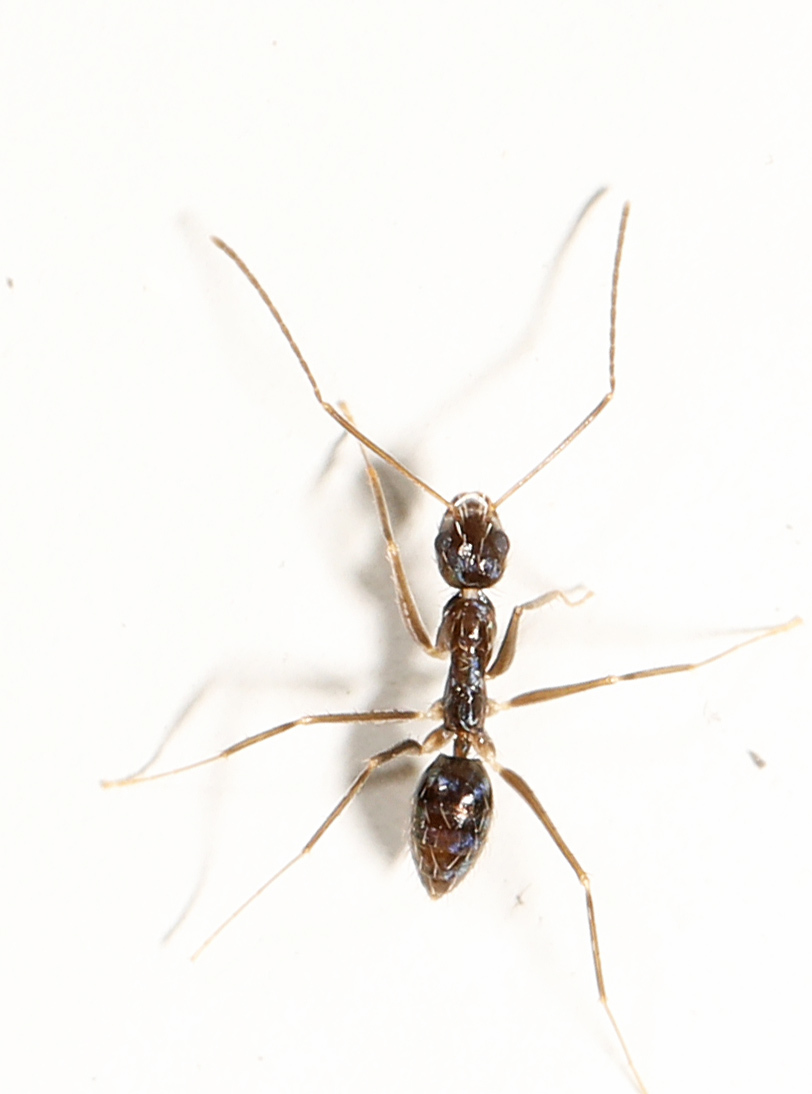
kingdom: Animalia
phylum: Arthropoda
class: Insecta
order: Hymenoptera
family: Formicidae
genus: Paratrechina
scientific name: Paratrechina longicornis
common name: Longhorned crazy ant
